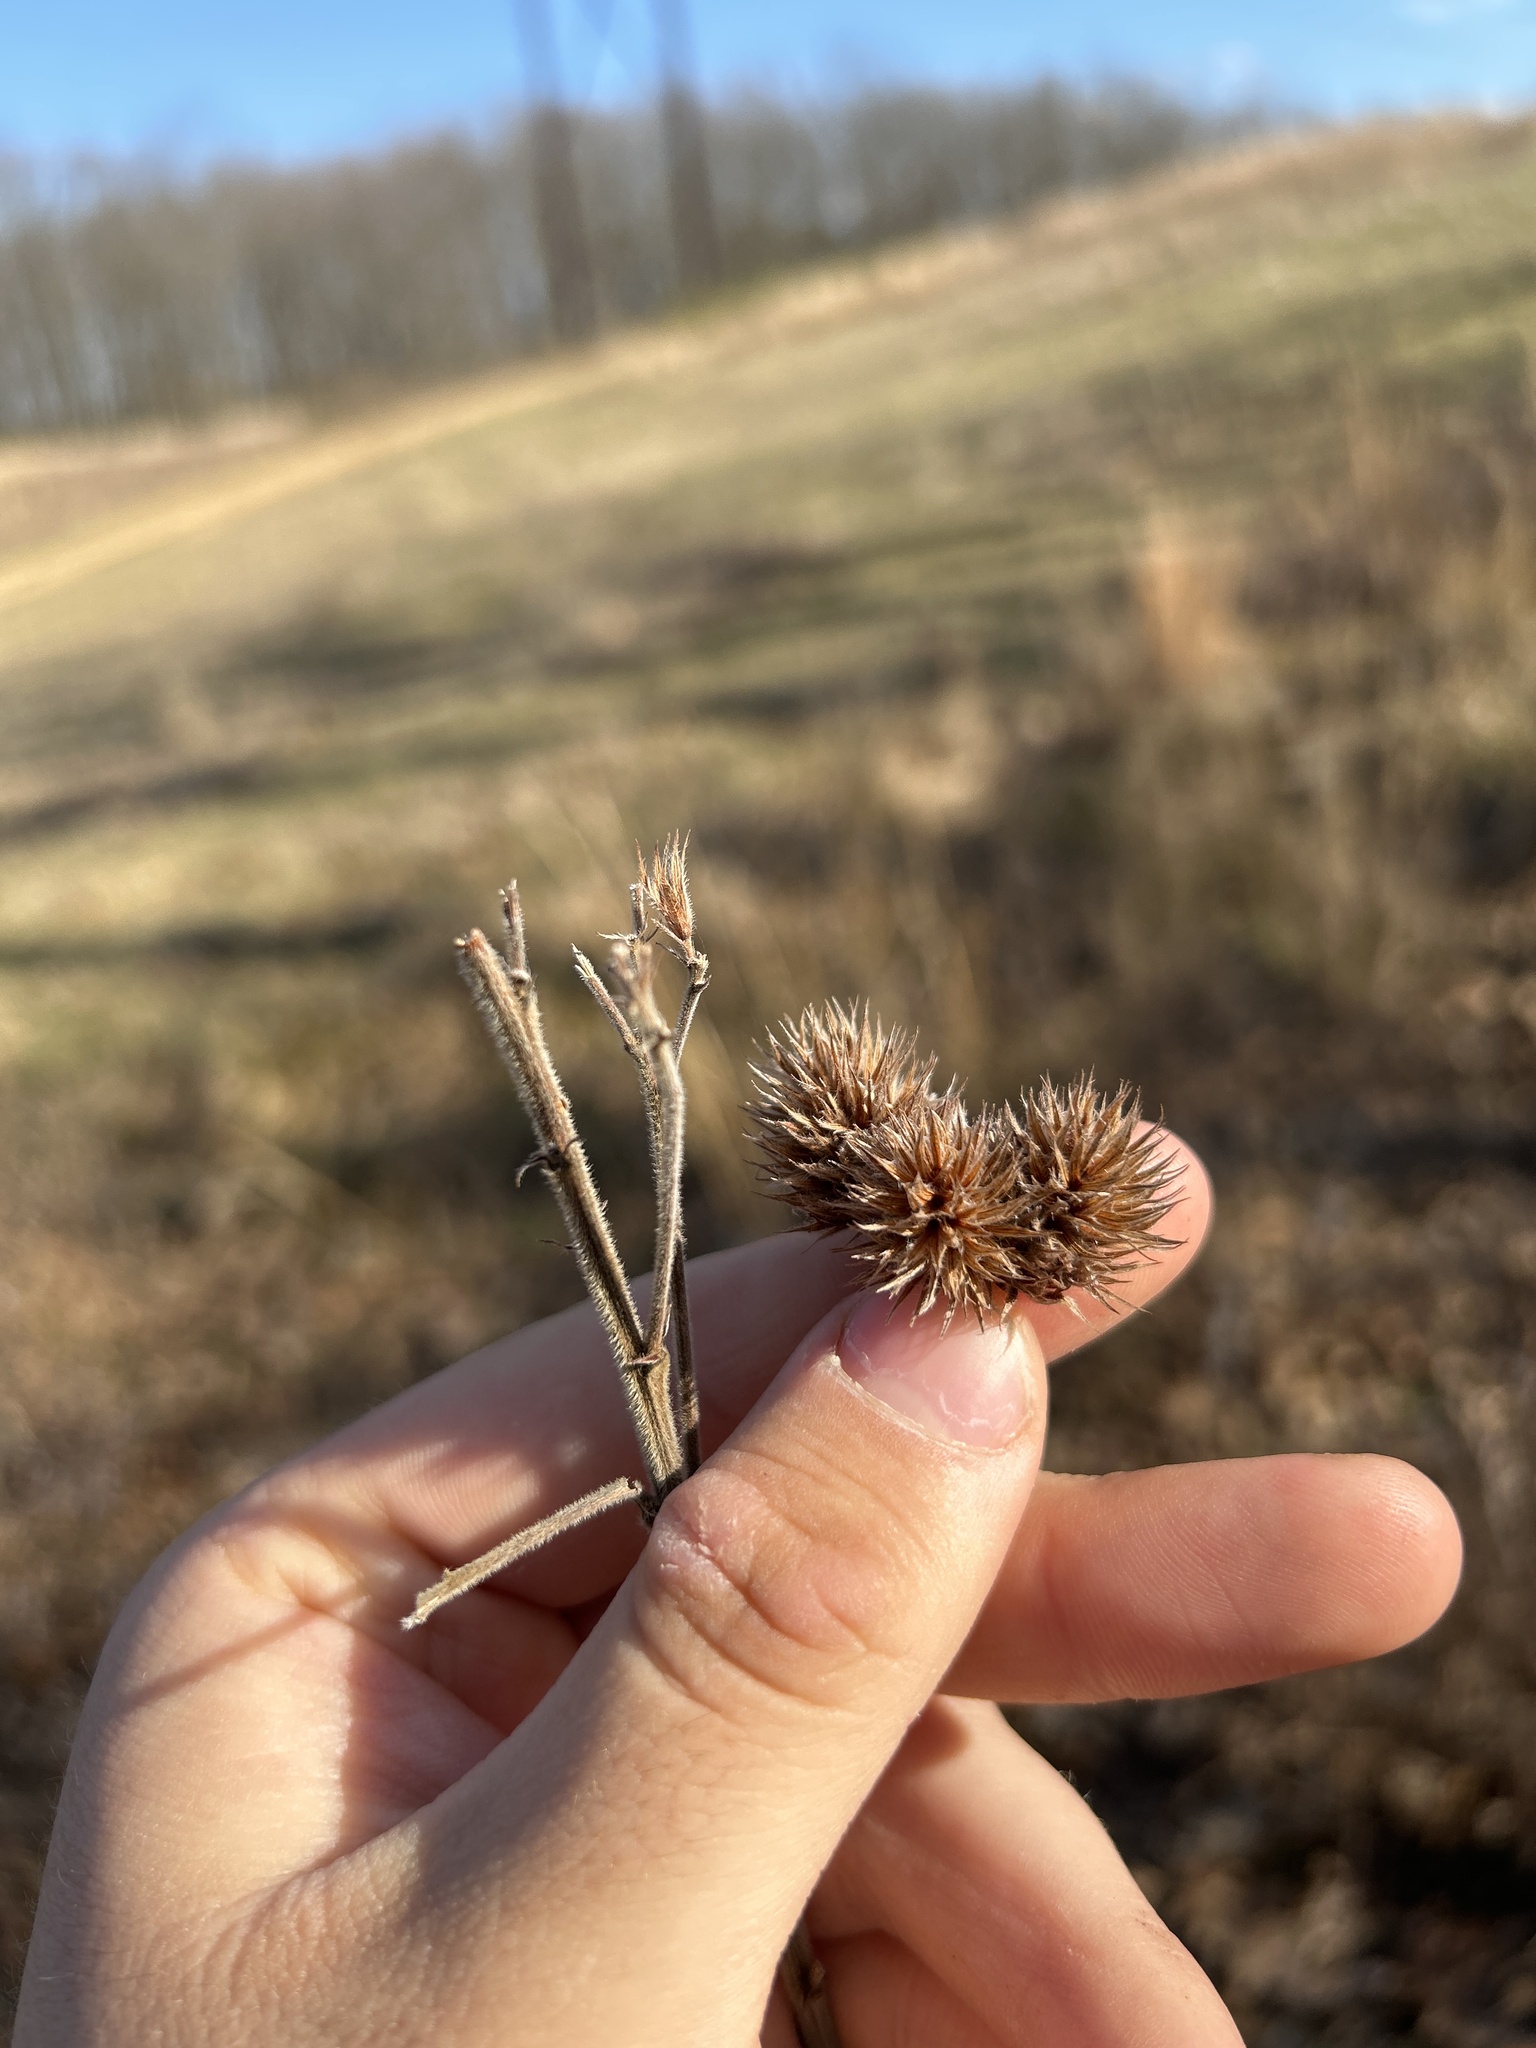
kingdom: Plantae
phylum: Tracheophyta
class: Magnoliopsida
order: Fabales
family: Fabaceae
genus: Lespedeza
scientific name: Lespedeza capitata
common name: Dusty clover
